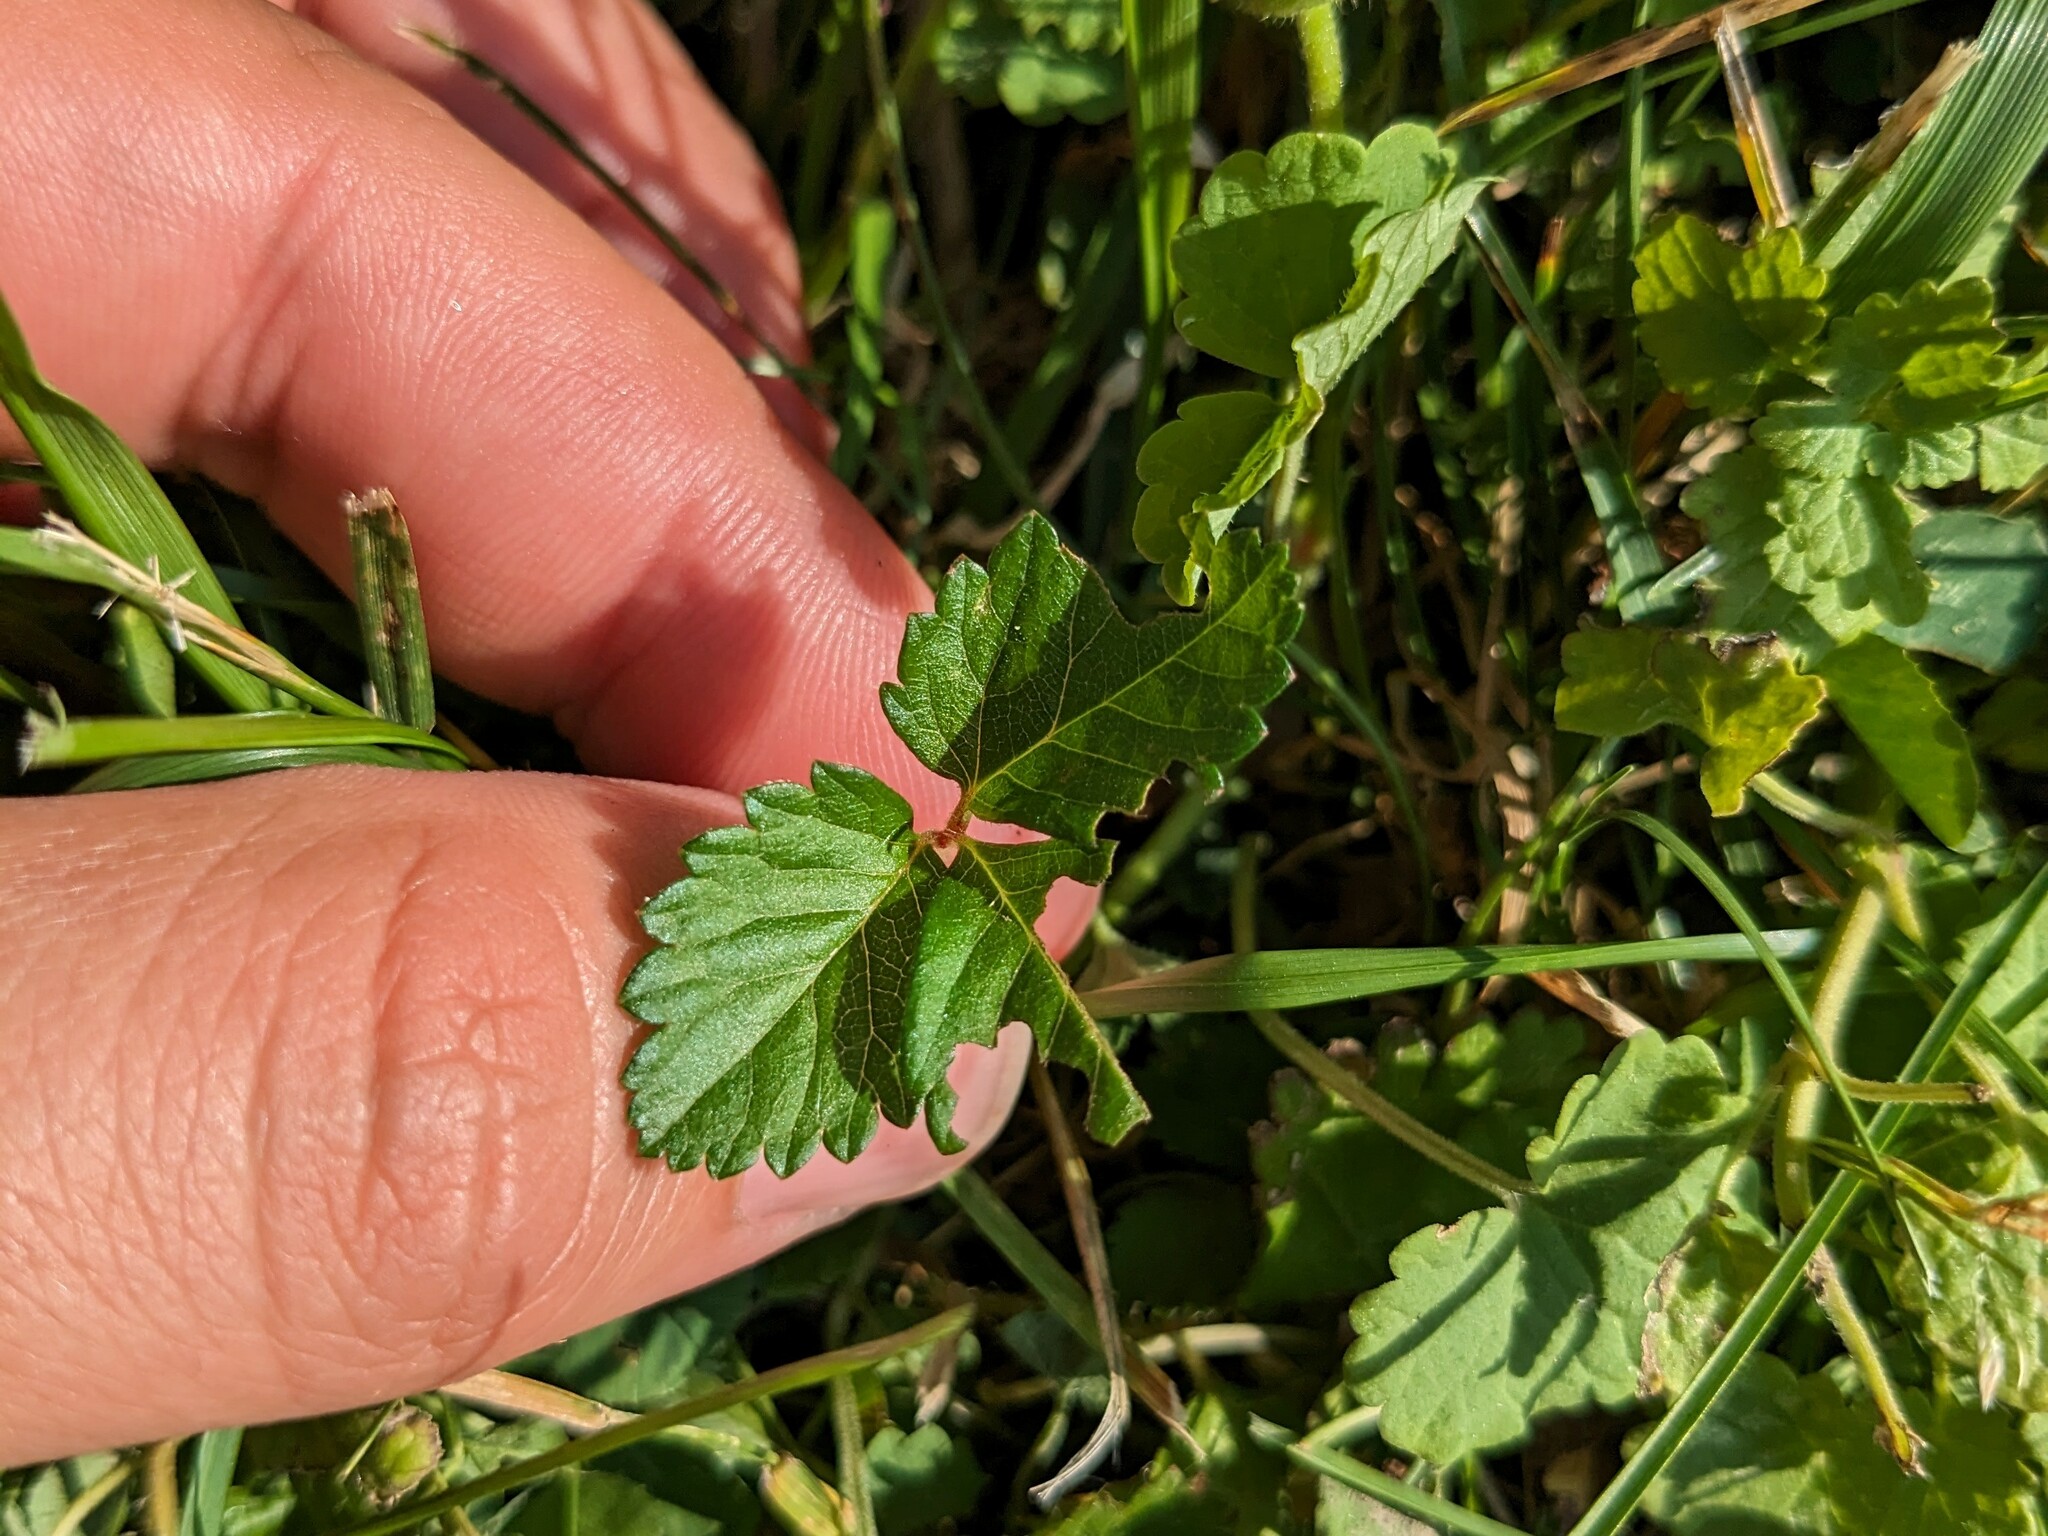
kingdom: Plantae
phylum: Tracheophyta
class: Magnoliopsida
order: Rosales
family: Rosaceae
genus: Potentilla
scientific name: Potentilla indica
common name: Yellow-flowered strawberry
